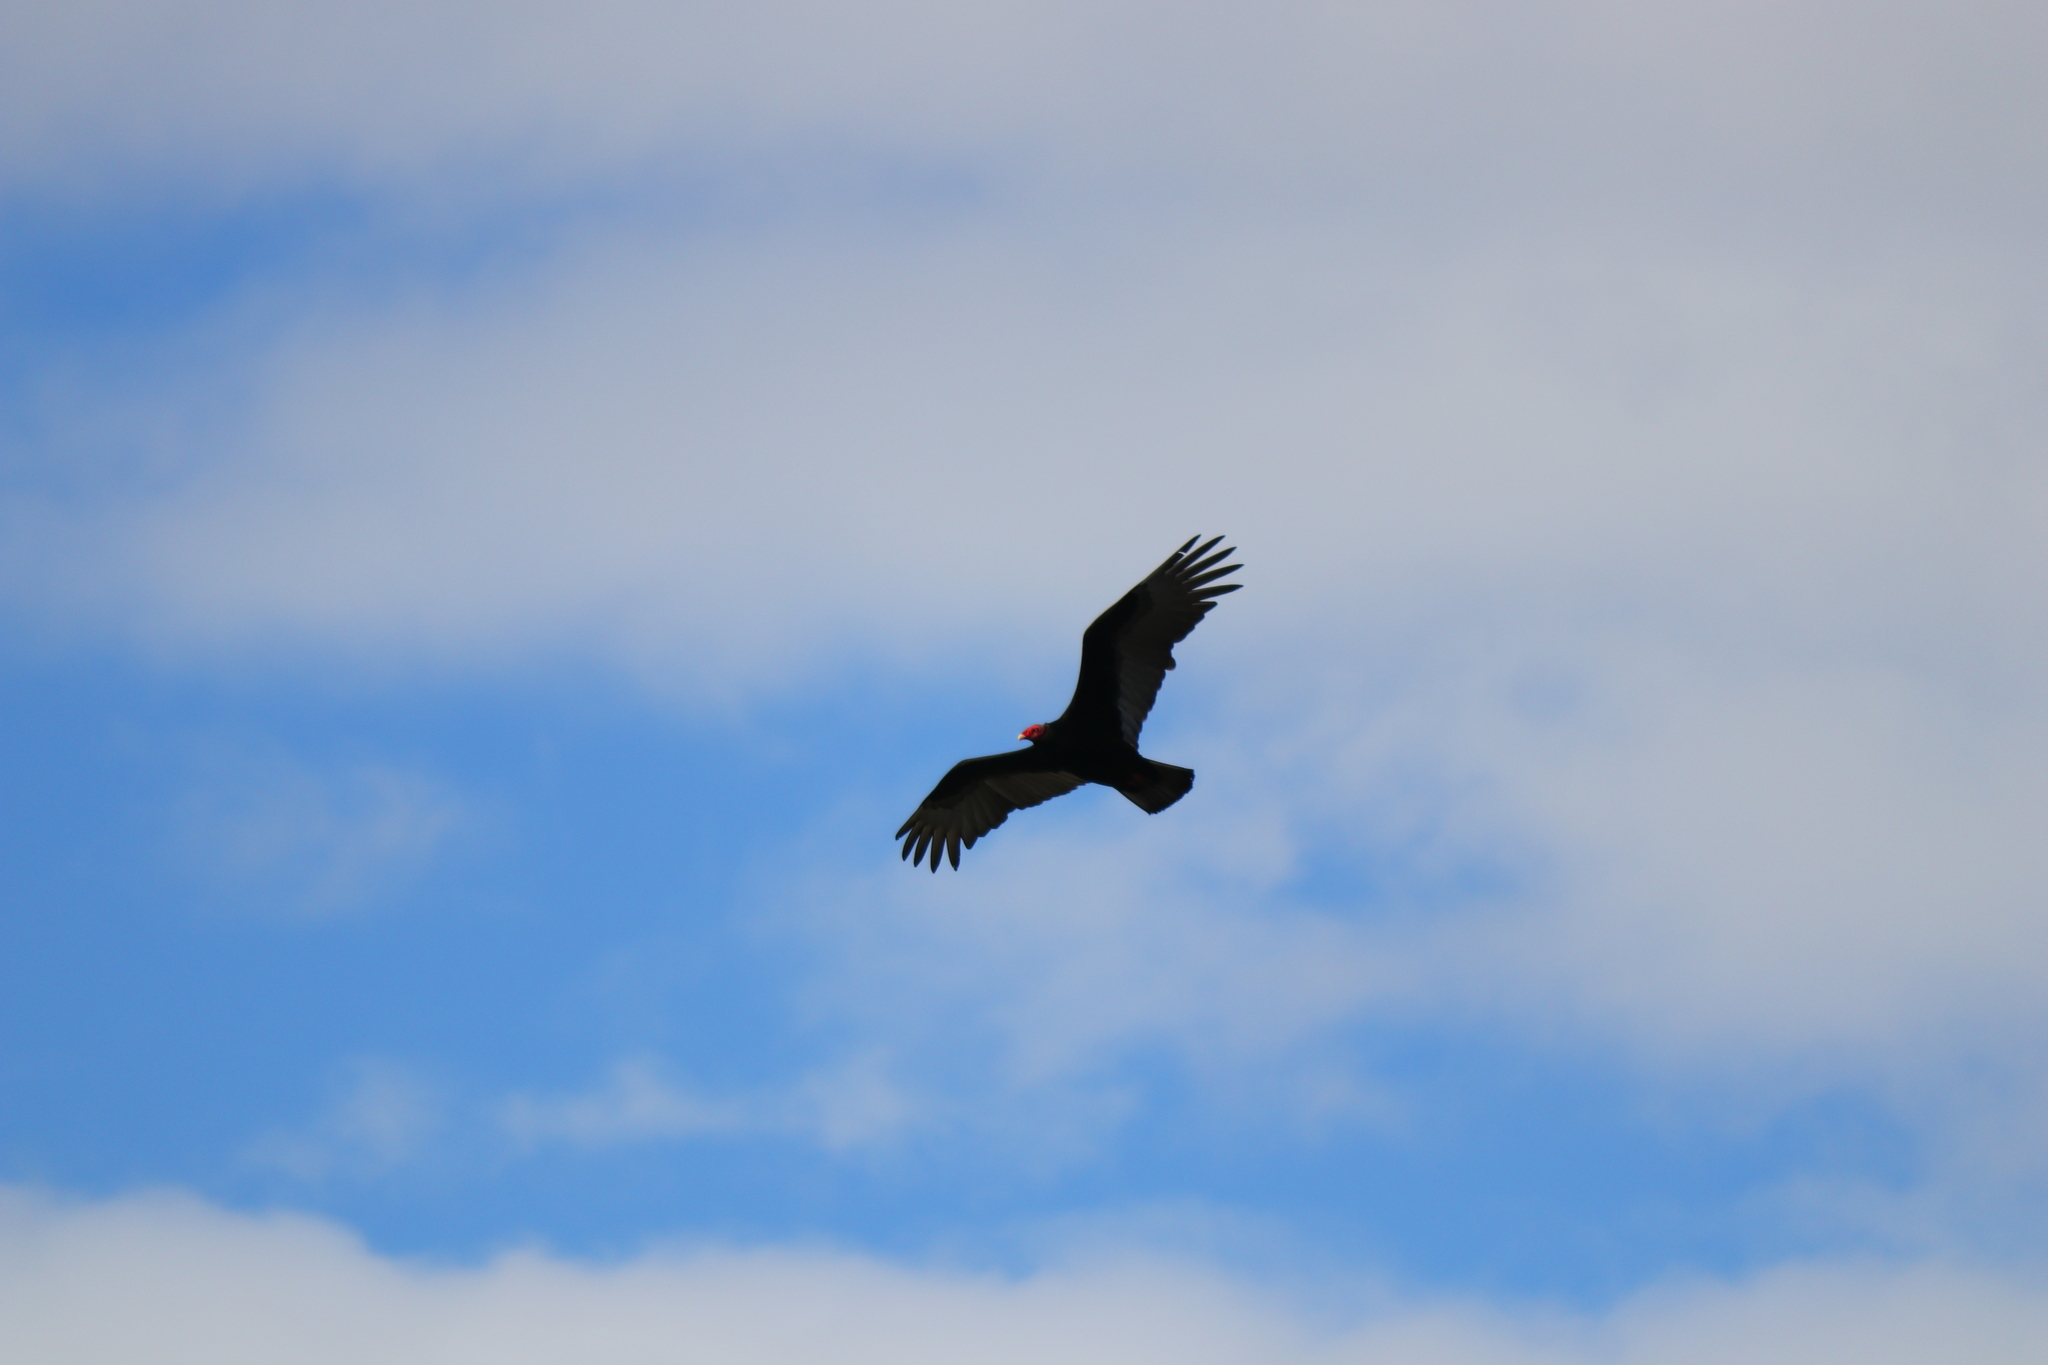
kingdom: Animalia
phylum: Chordata
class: Aves
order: Accipitriformes
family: Cathartidae
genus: Cathartes
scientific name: Cathartes aura
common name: Turkey vulture
